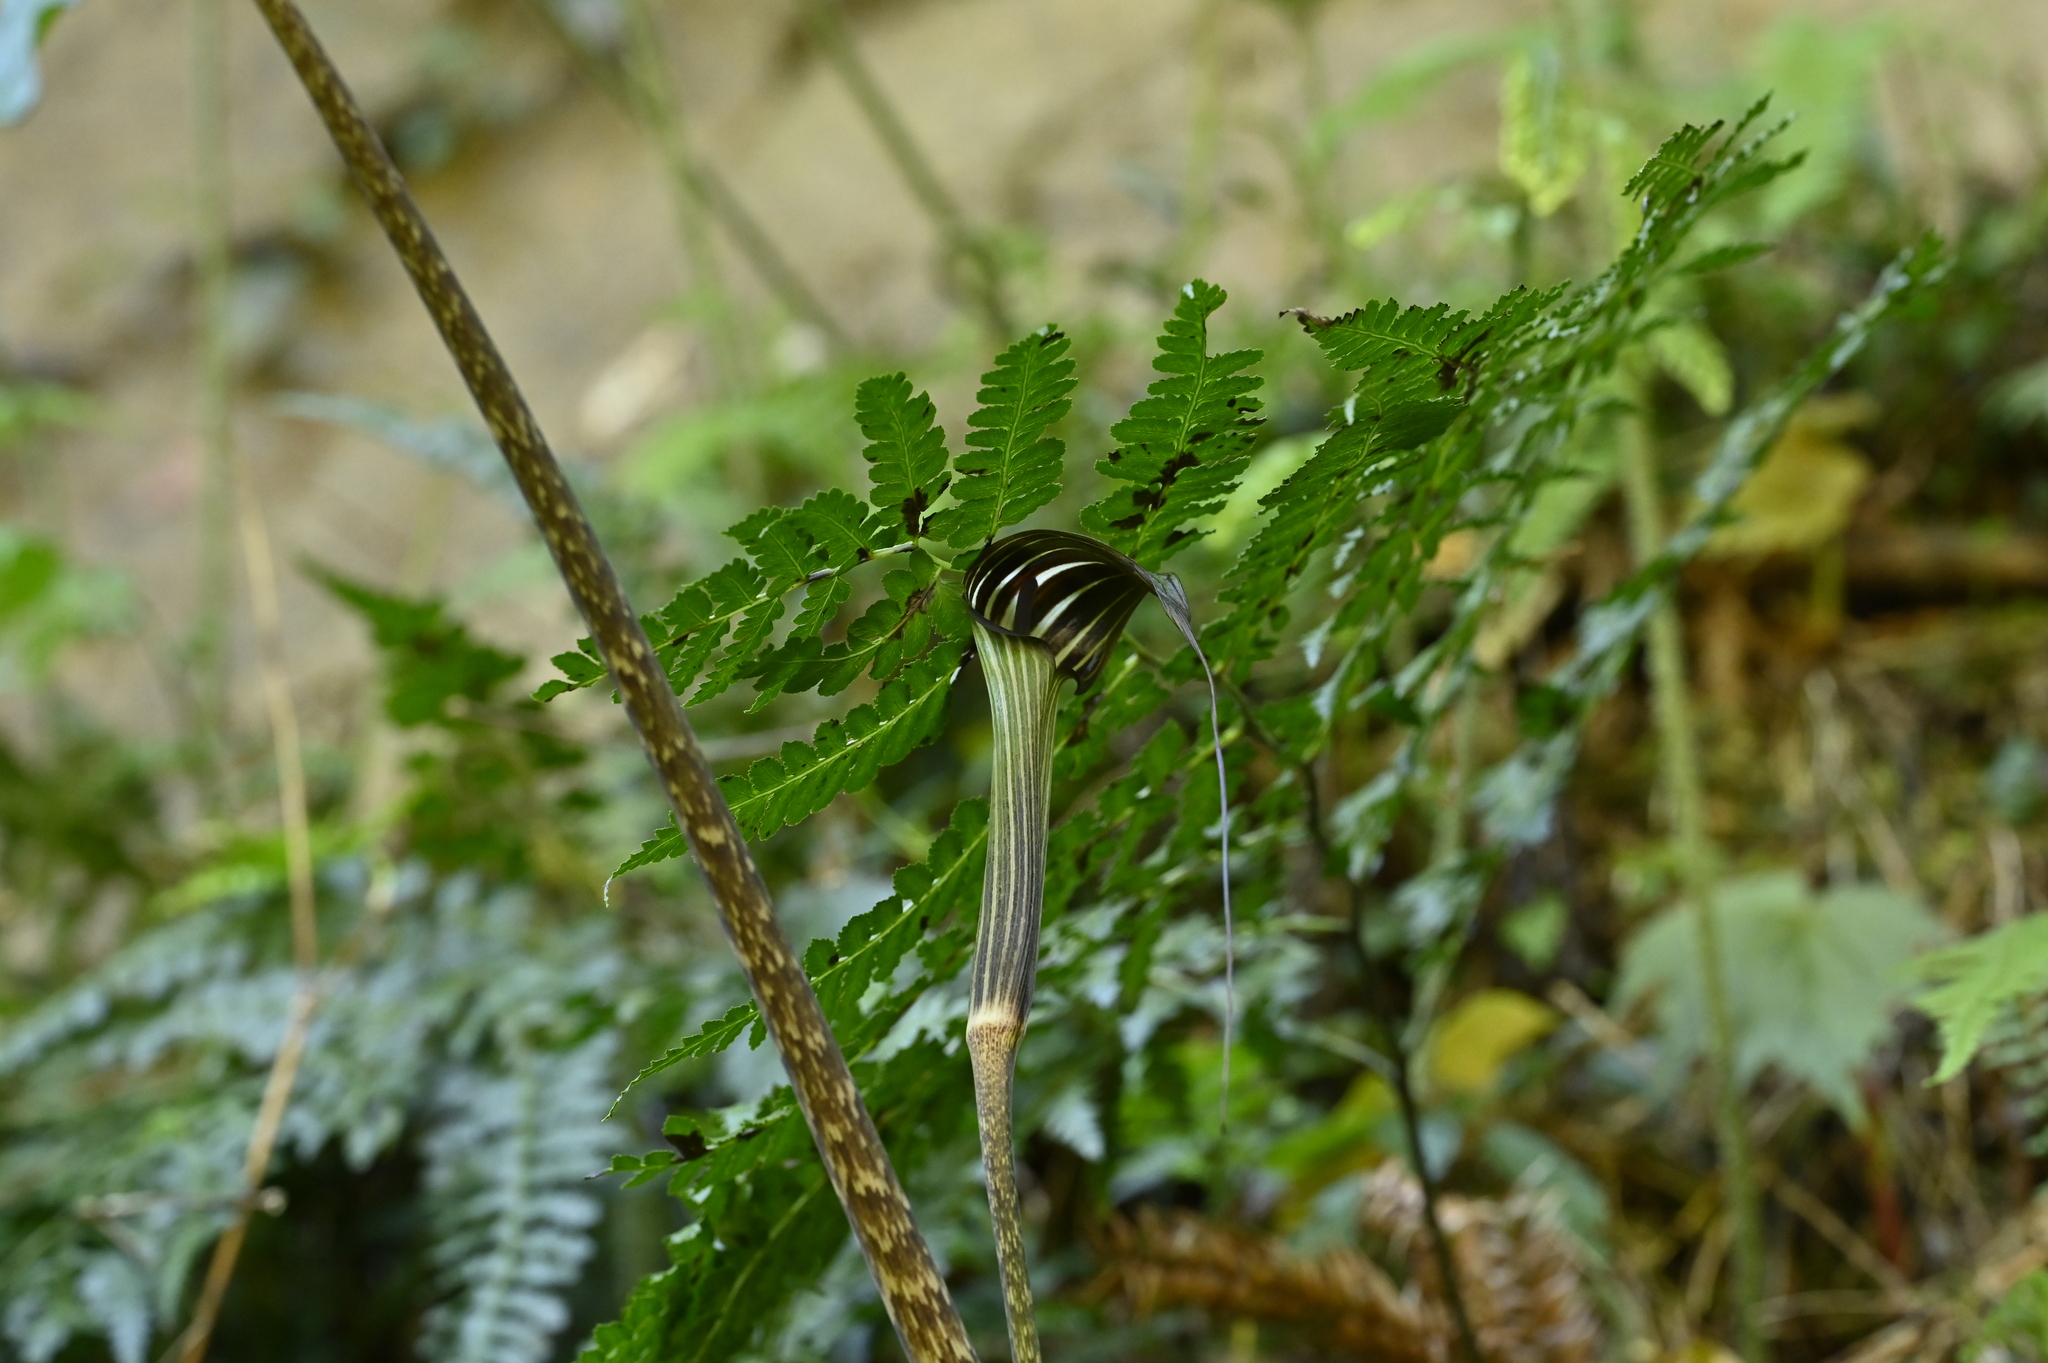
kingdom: Plantae
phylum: Tracheophyta
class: Liliopsida
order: Alismatales
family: Araceae
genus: Arisaema
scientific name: Arisaema consanguineum
